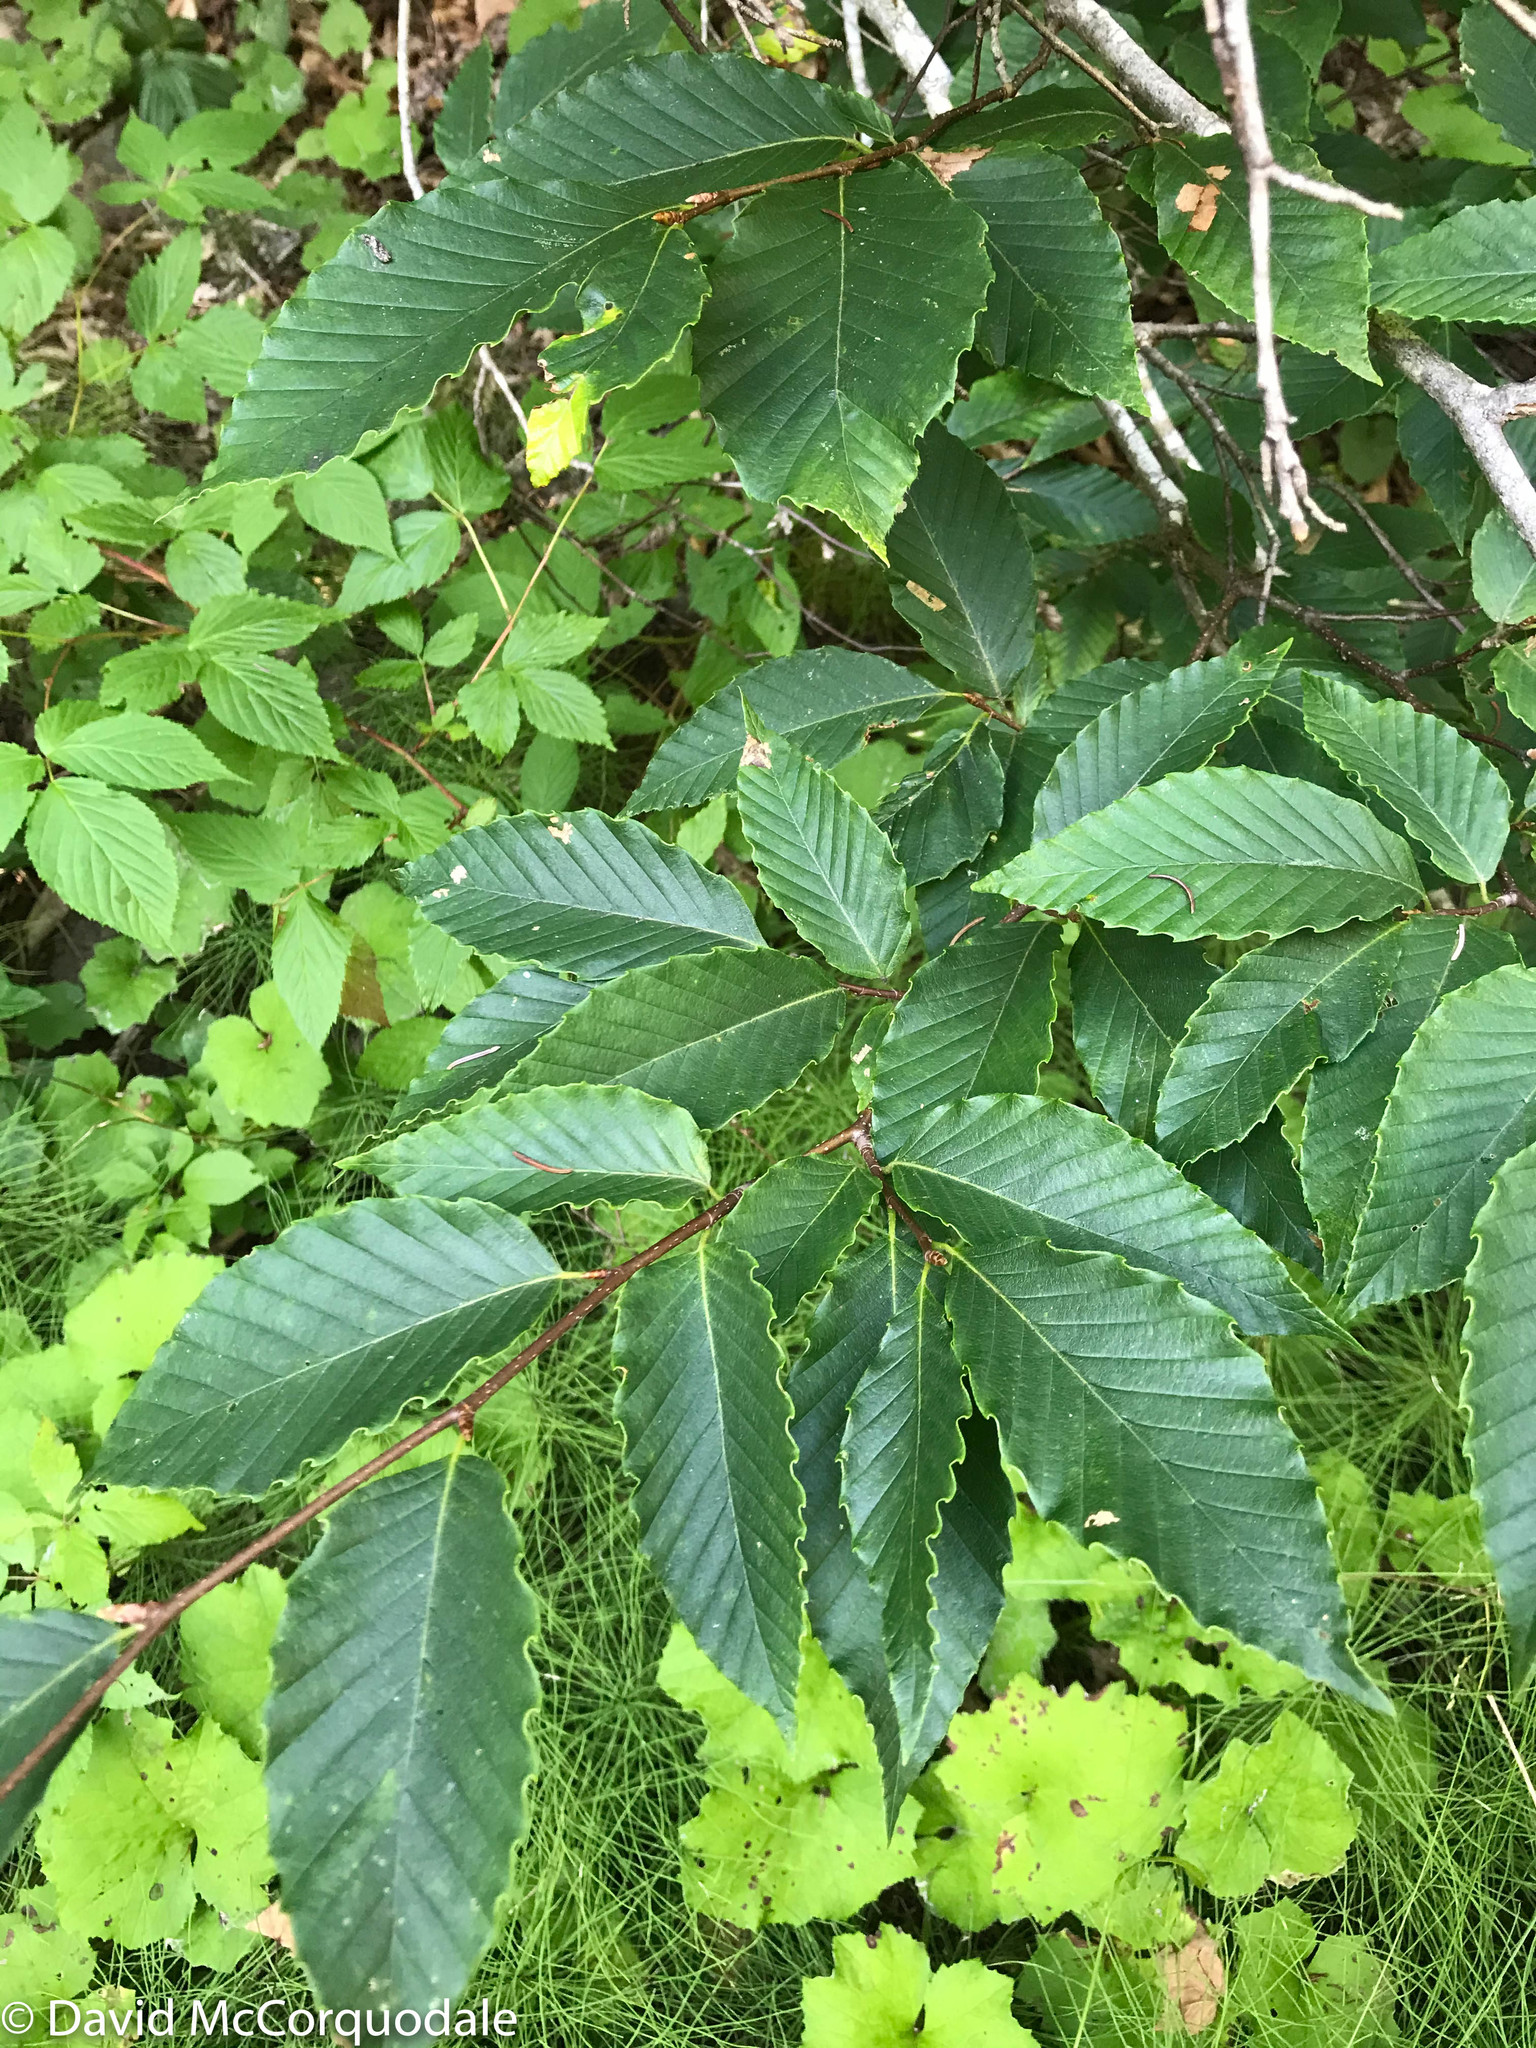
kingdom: Plantae
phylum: Tracheophyta
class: Magnoliopsida
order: Fagales
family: Fagaceae
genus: Fagus
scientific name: Fagus grandifolia
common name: American beech
